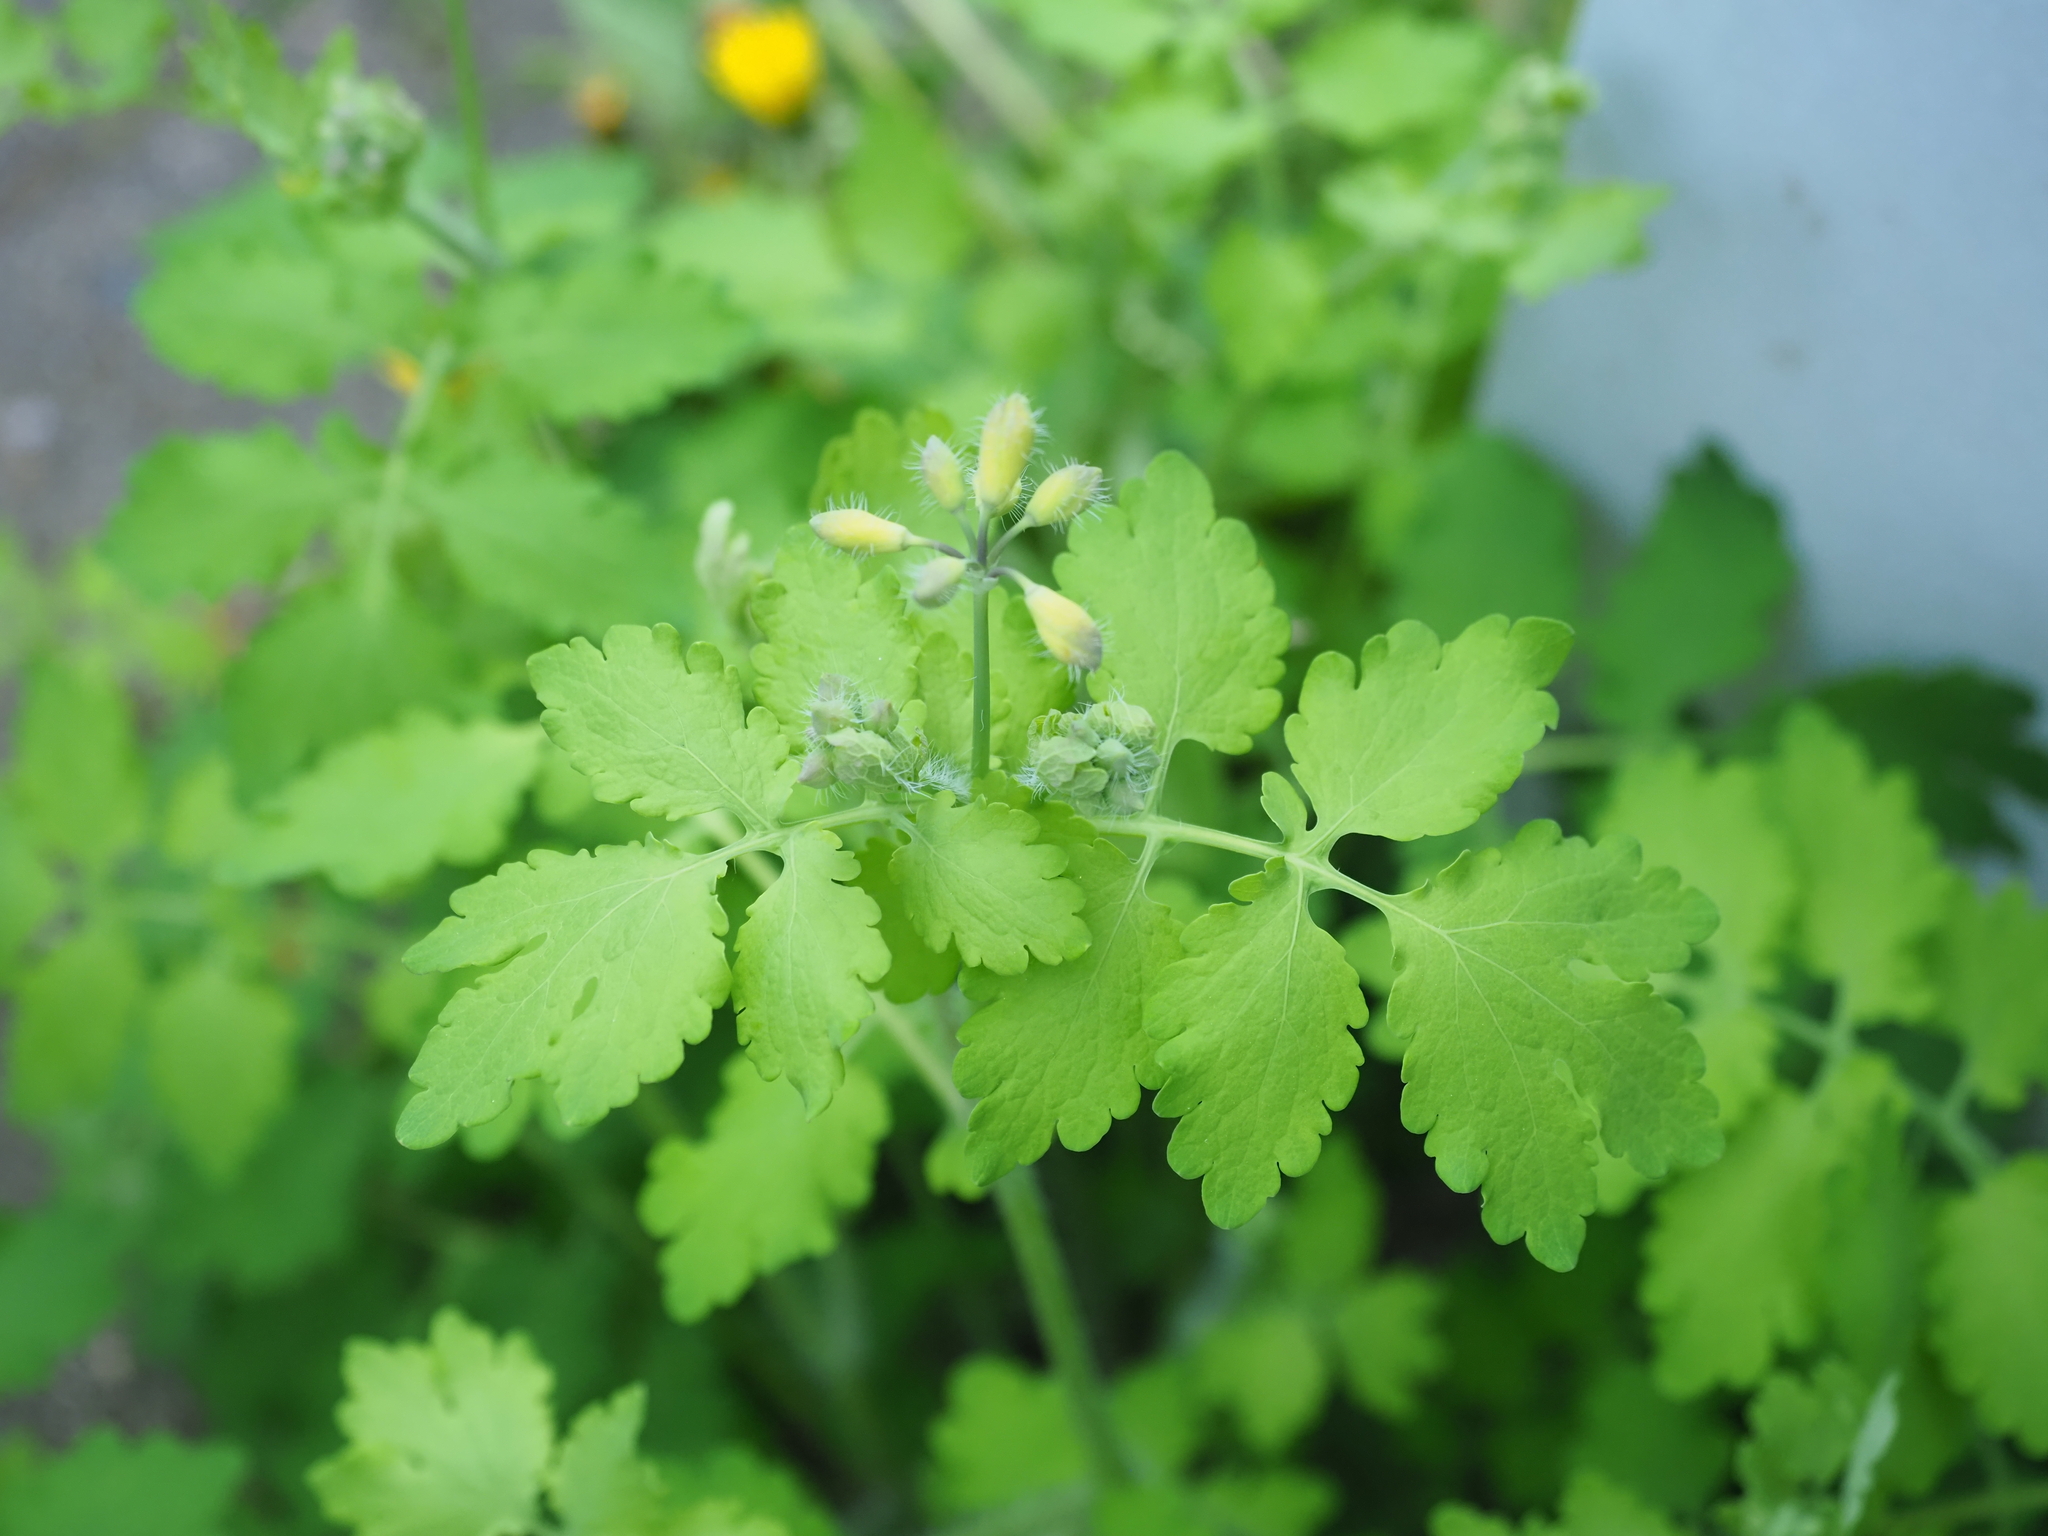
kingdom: Plantae
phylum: Tracheophyta
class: Magnoliopsida
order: Ranunculales
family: Papaveraceae
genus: Chelidonium
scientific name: Chelidonium majus
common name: Greater celandine
